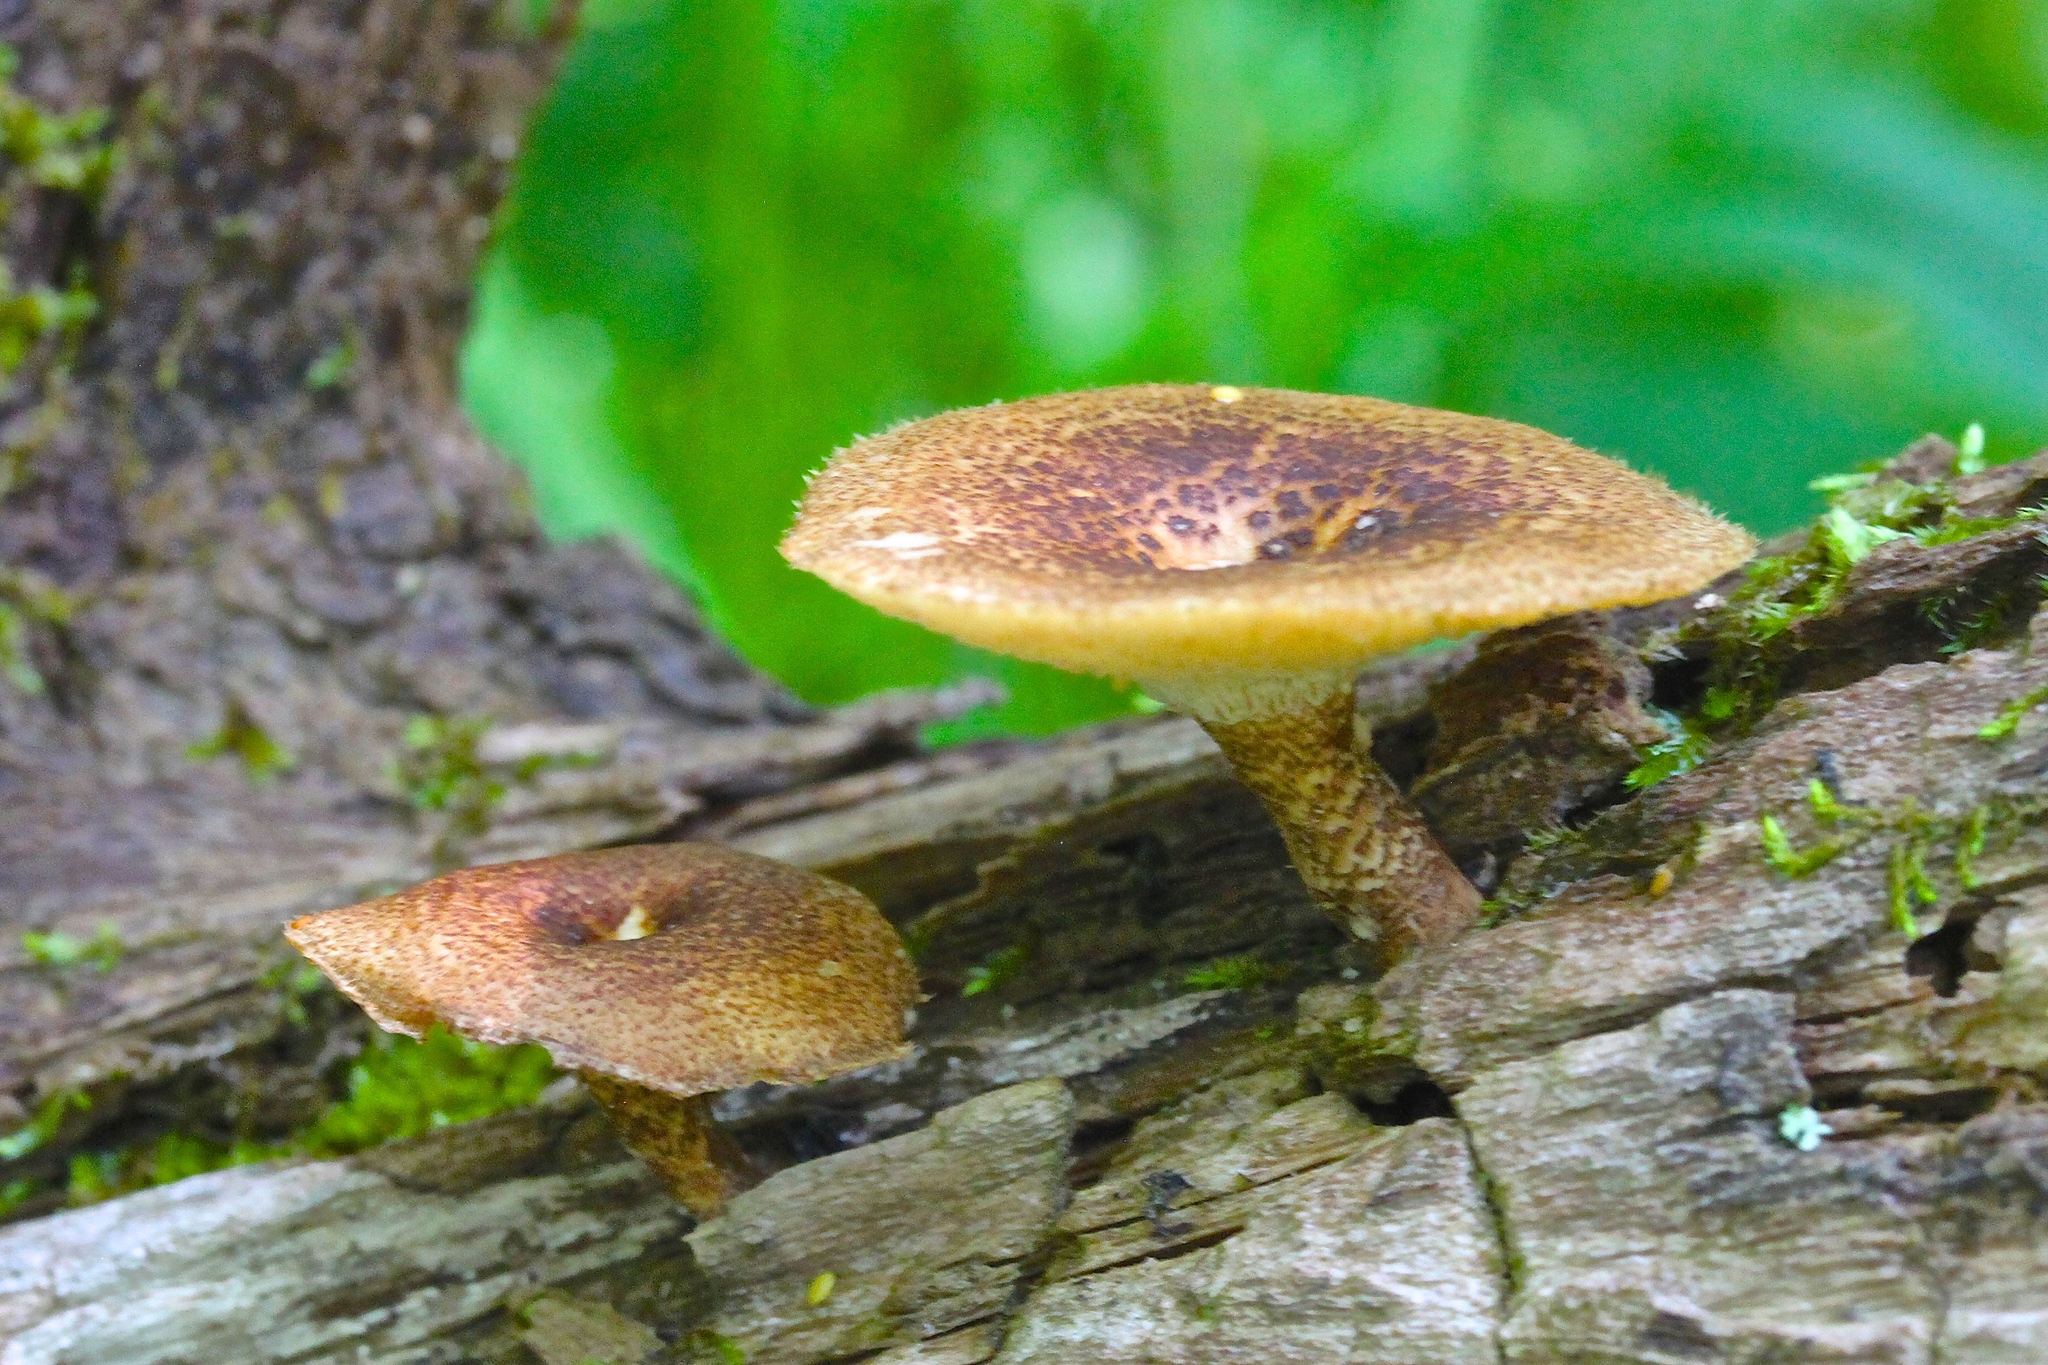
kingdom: Fungi
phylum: Basidiomycota
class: Agaricomycetes
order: Polyporales
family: Polyporaceae
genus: Lentinus
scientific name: Lentinus arcularius
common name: Spring polypore
